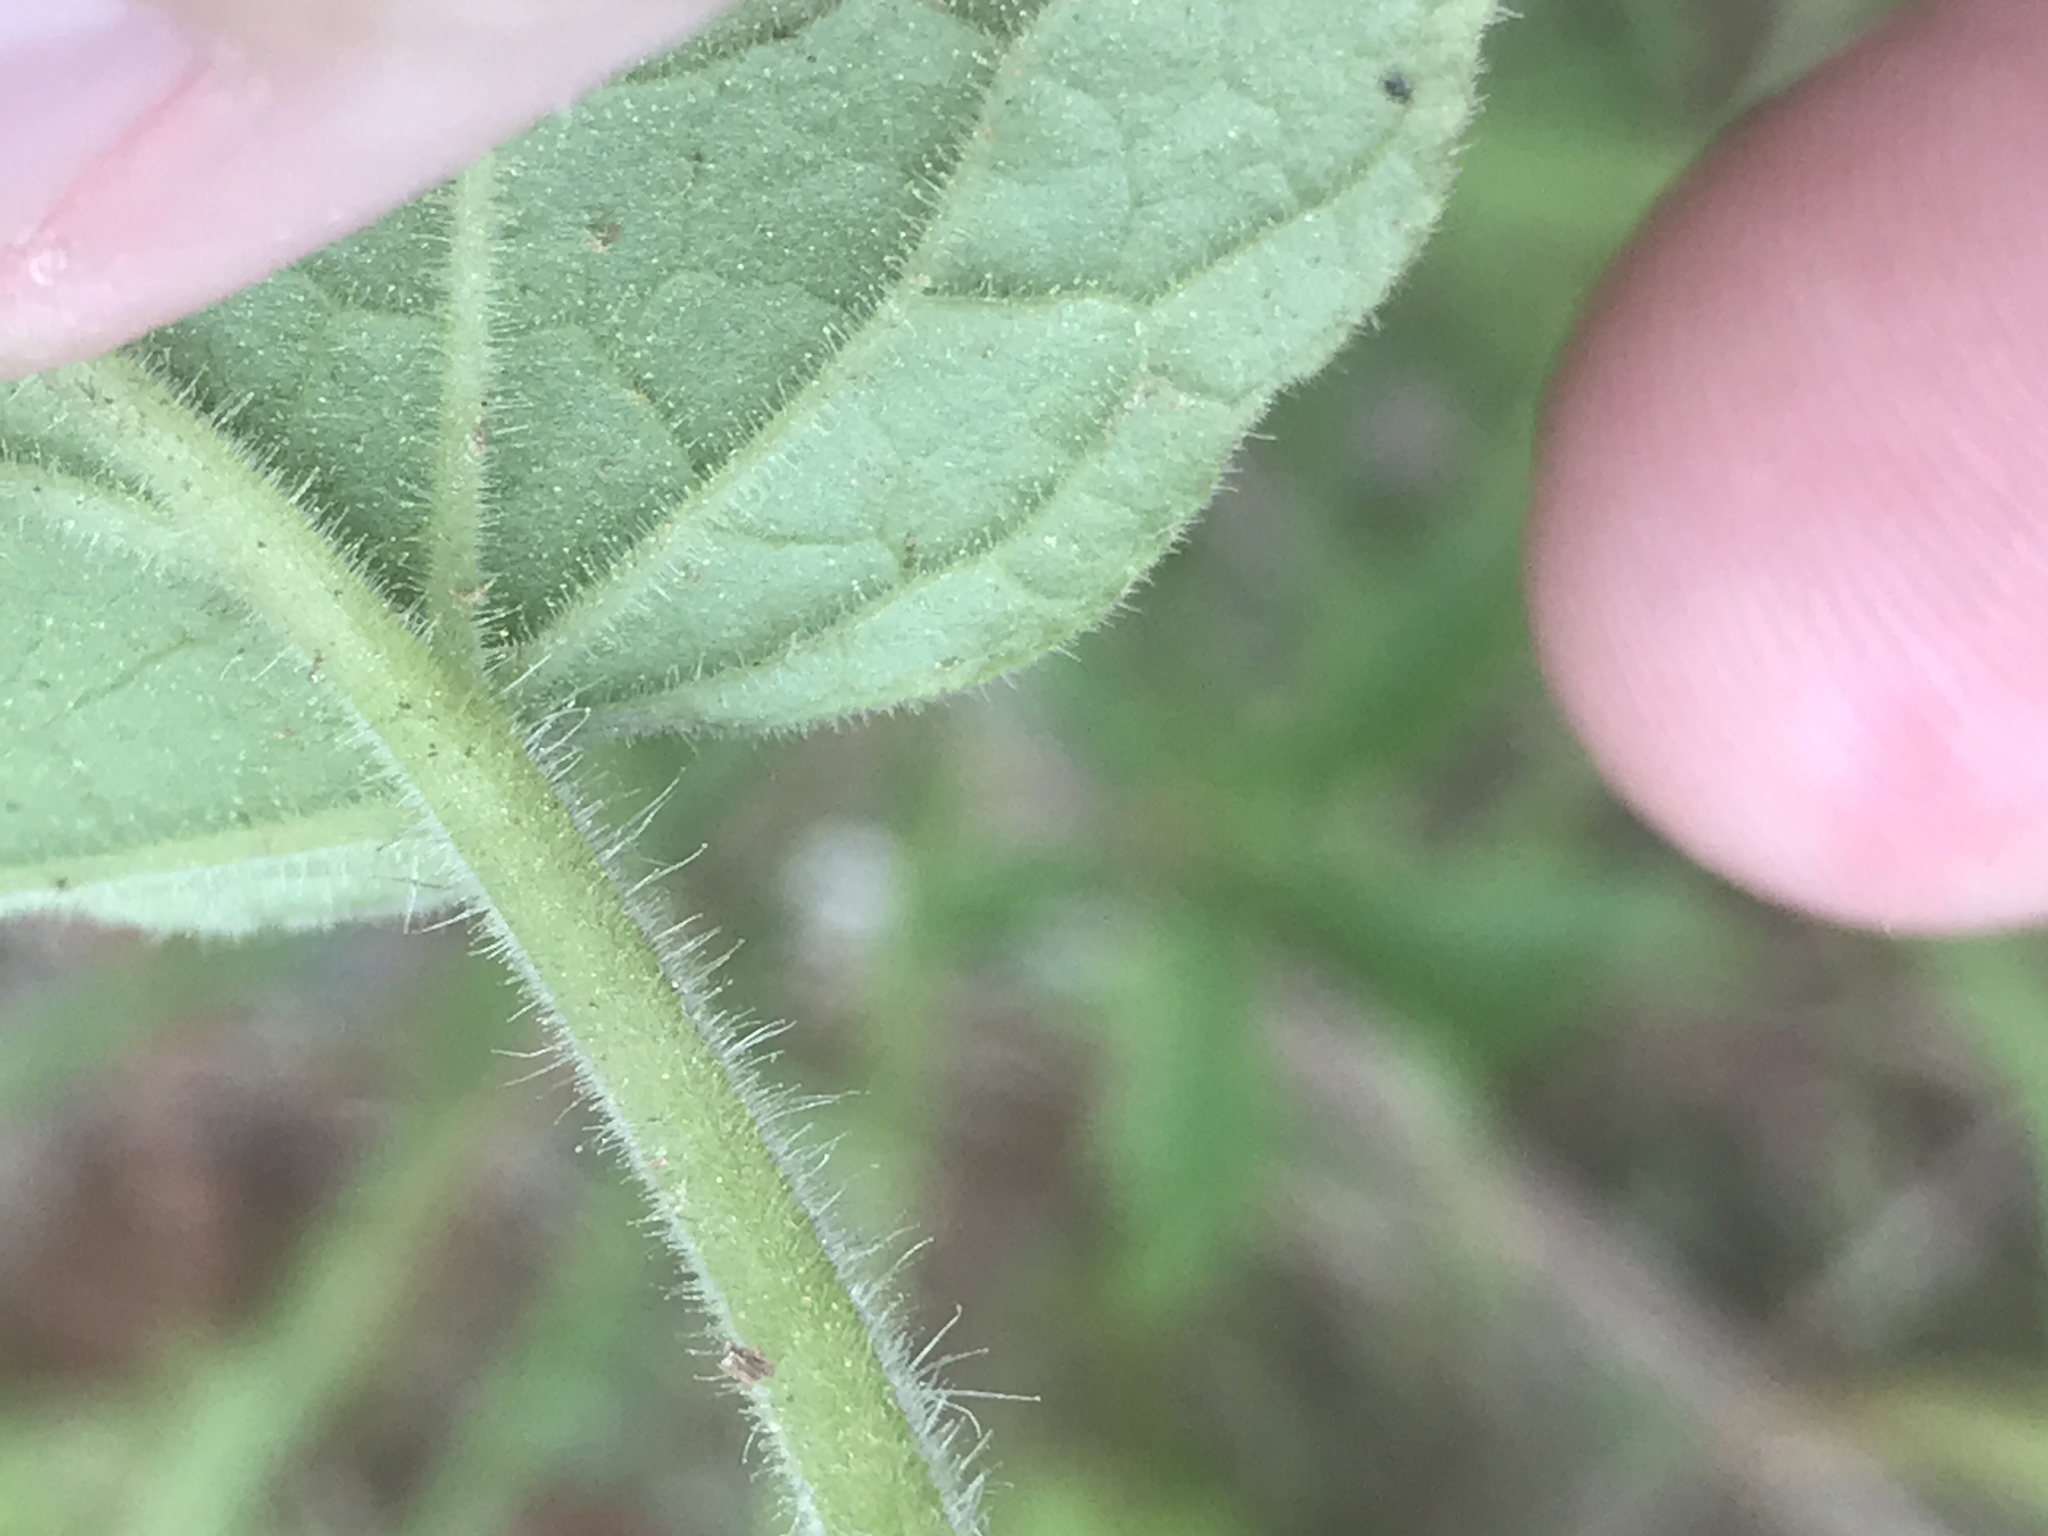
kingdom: Plantae
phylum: Tracheophyta
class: Magnoliopsida
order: Solanales
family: Solanaceae
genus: Physalis
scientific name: Physalis heterophylla
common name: Clammy ground-cherry
